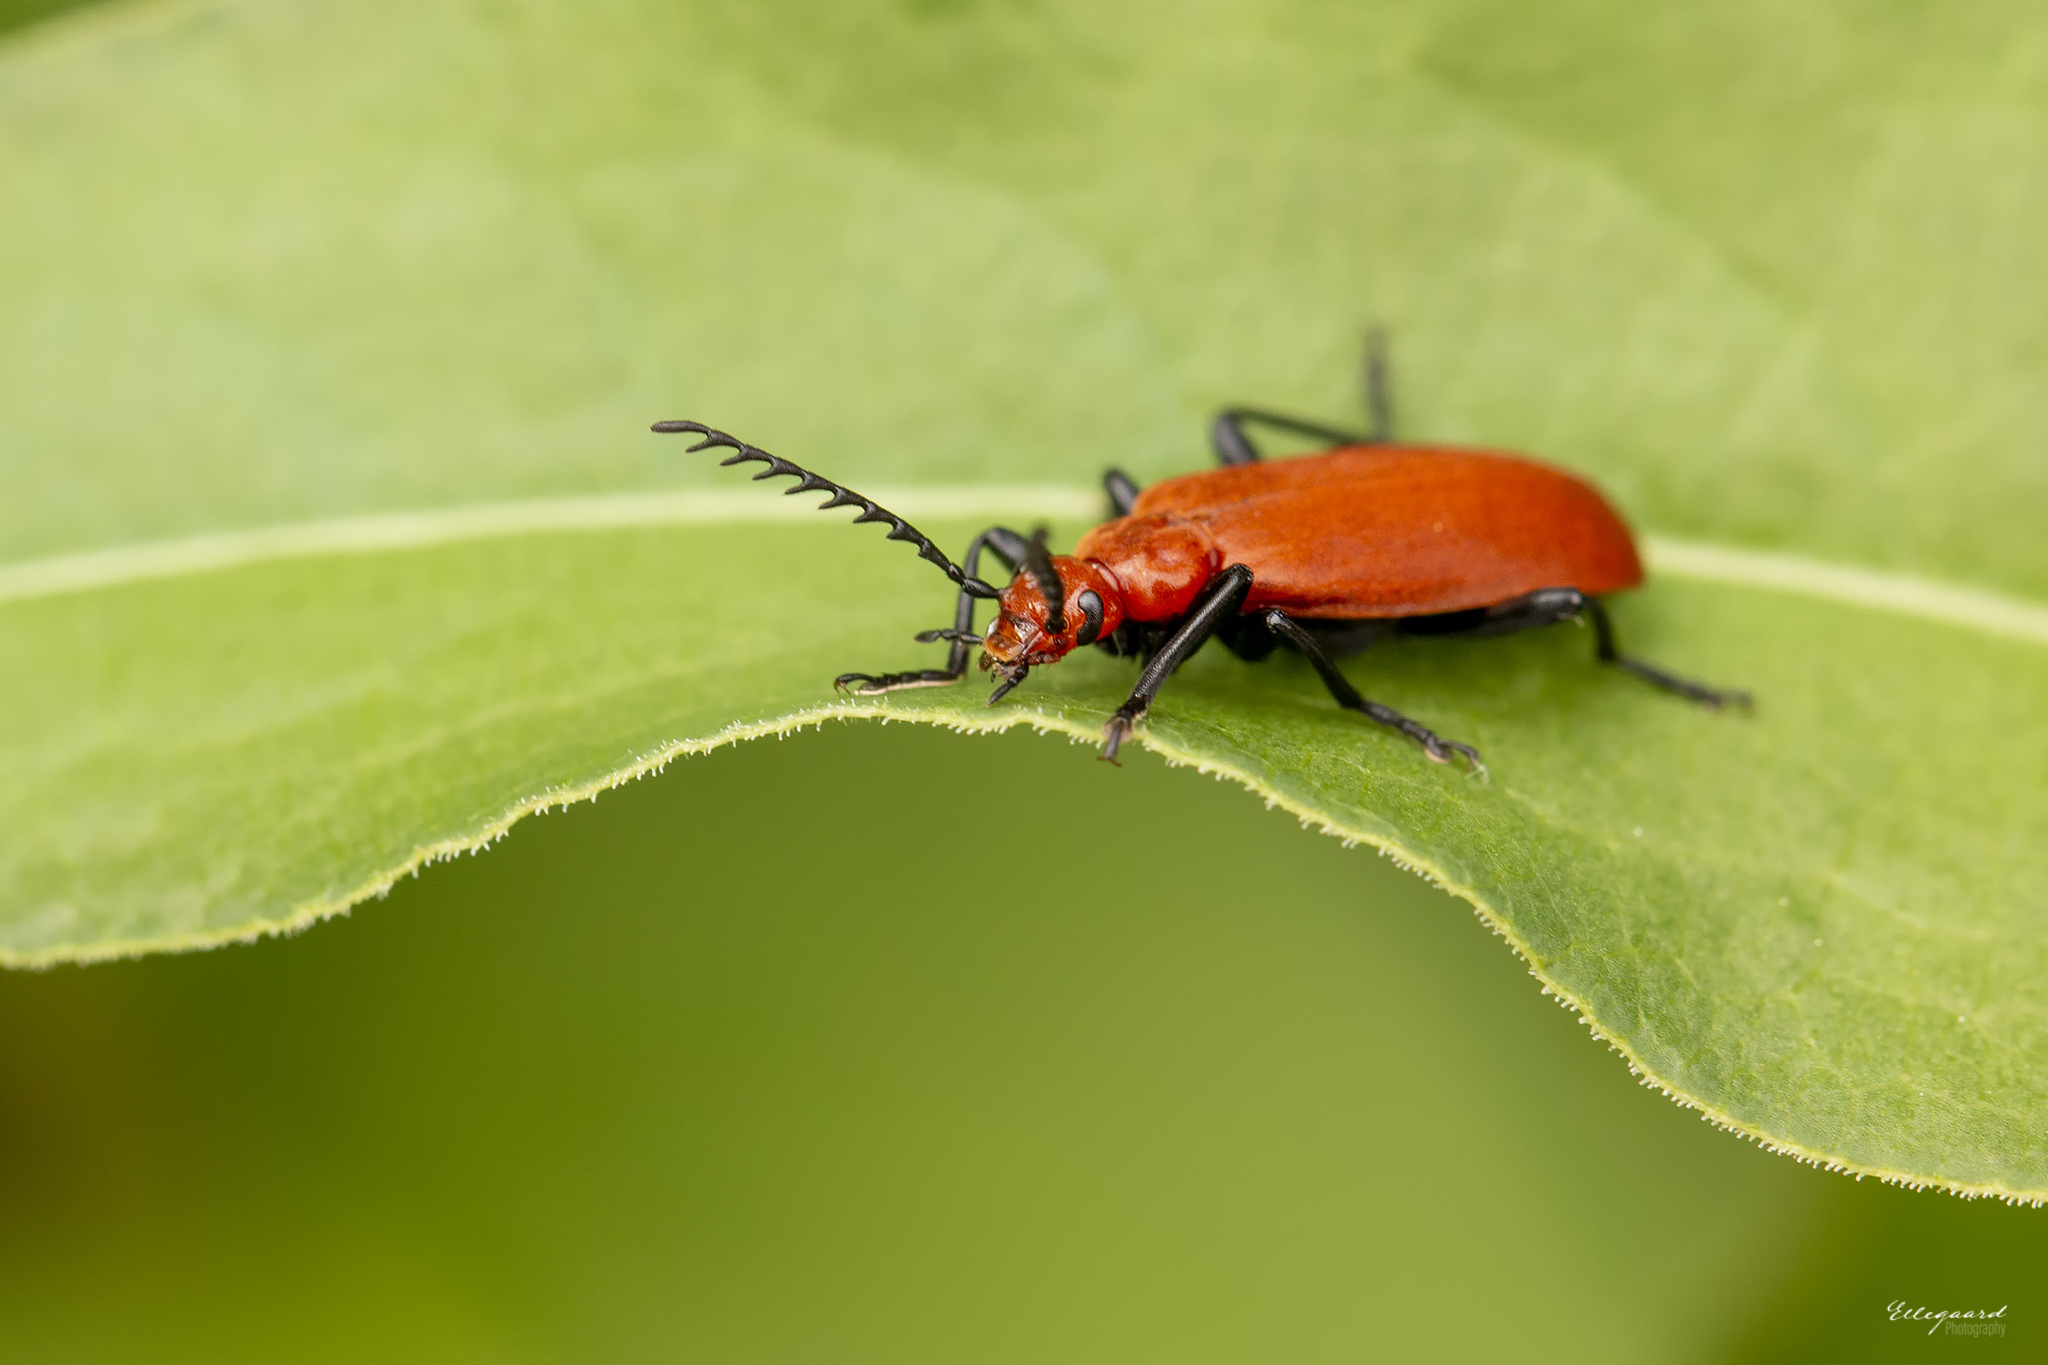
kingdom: Animalia
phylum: Arthropoda
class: Insecta
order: Coleoptera
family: Pyrochroidae
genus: Pyrochroa
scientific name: Pyrochroa serraticornis
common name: Red-headed cardinal beetle
